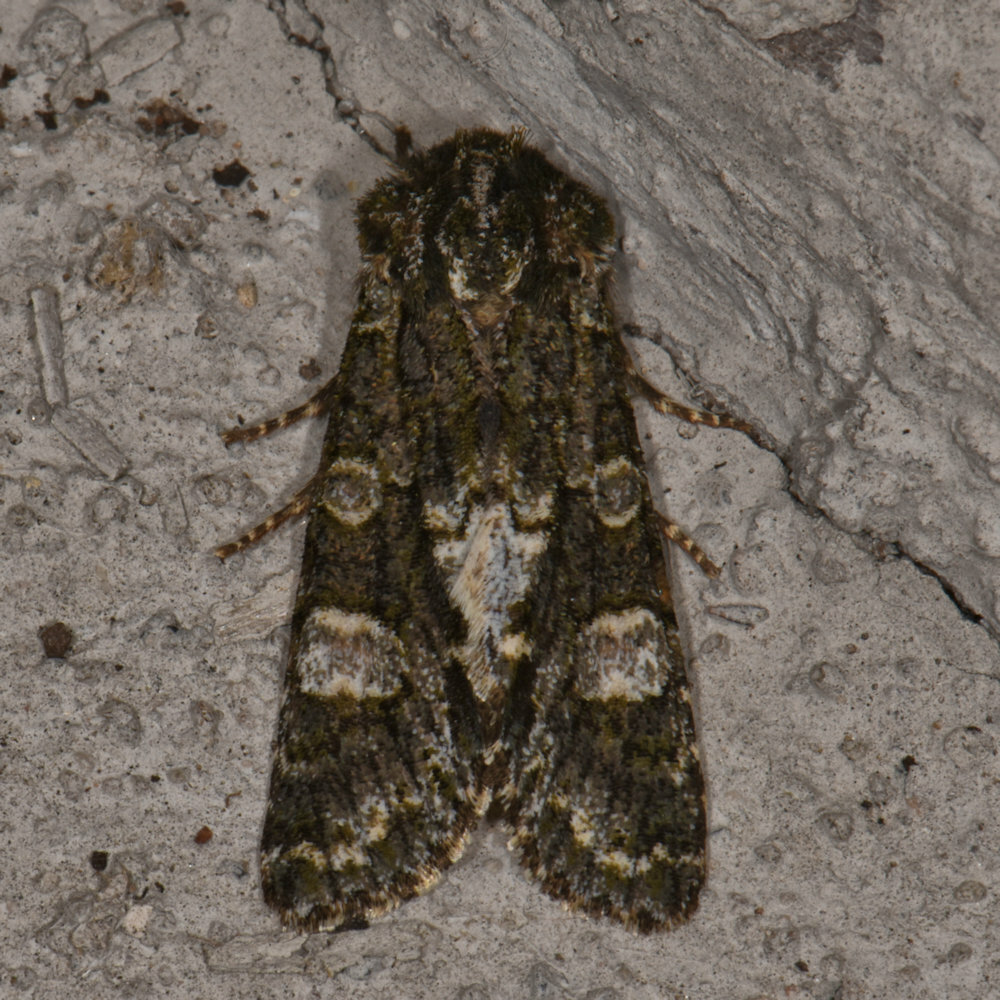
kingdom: Animalia
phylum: Arthropoda
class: Insecta
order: Lepidoptera
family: Noctuidae
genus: Psaphida
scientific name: Psaphida grotei
